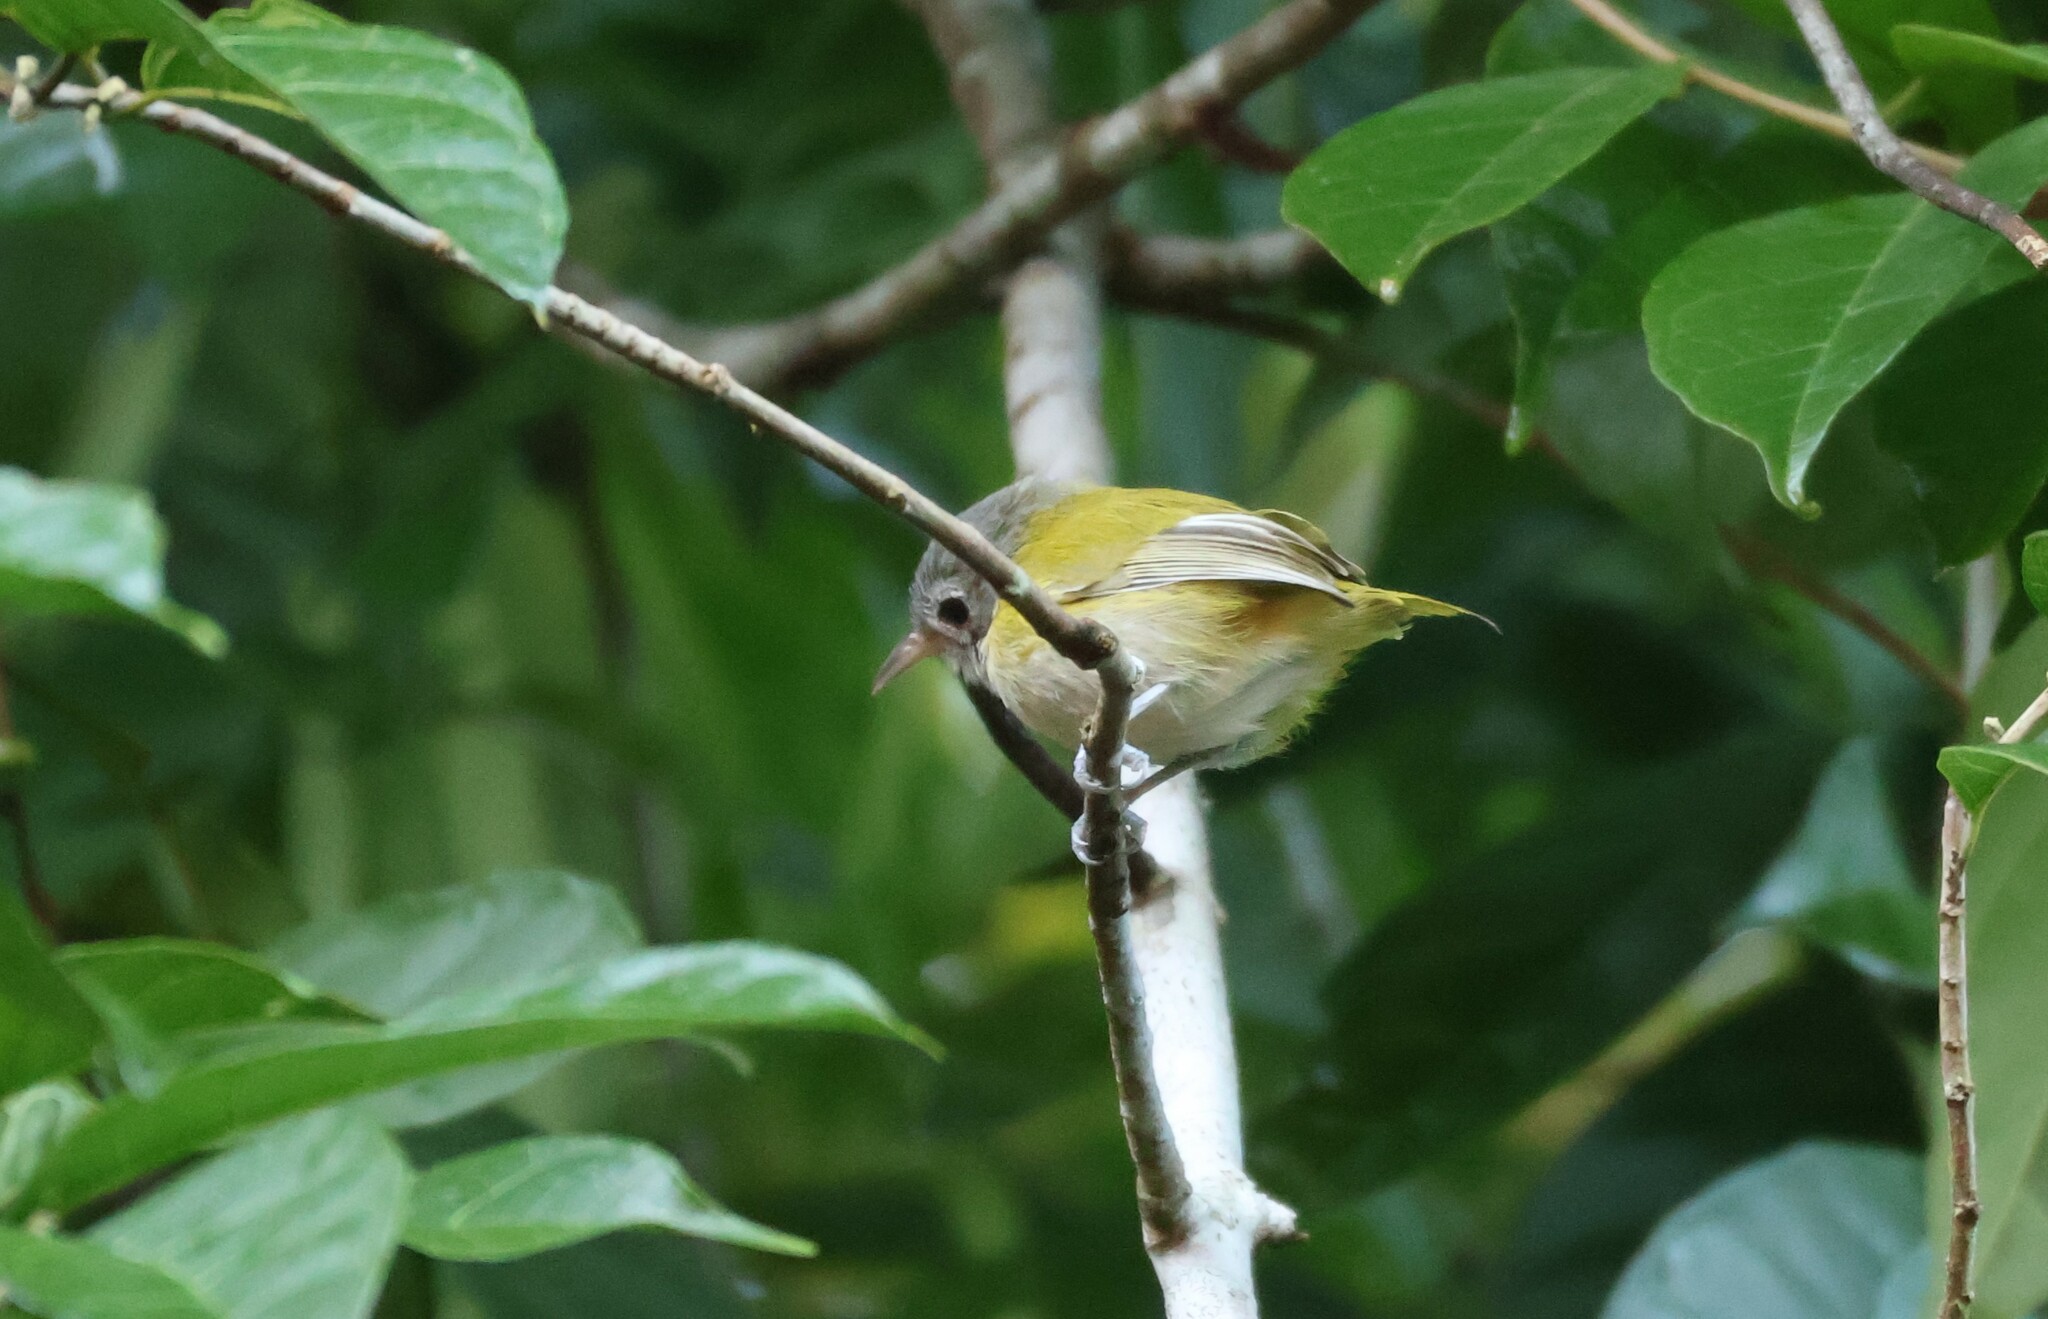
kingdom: Animalia
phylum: Chordata
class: Aves
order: Passeriformes
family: Vireonidae
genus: Hylophilus
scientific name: Hylophilus decurtatus
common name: Lesser greenlet
